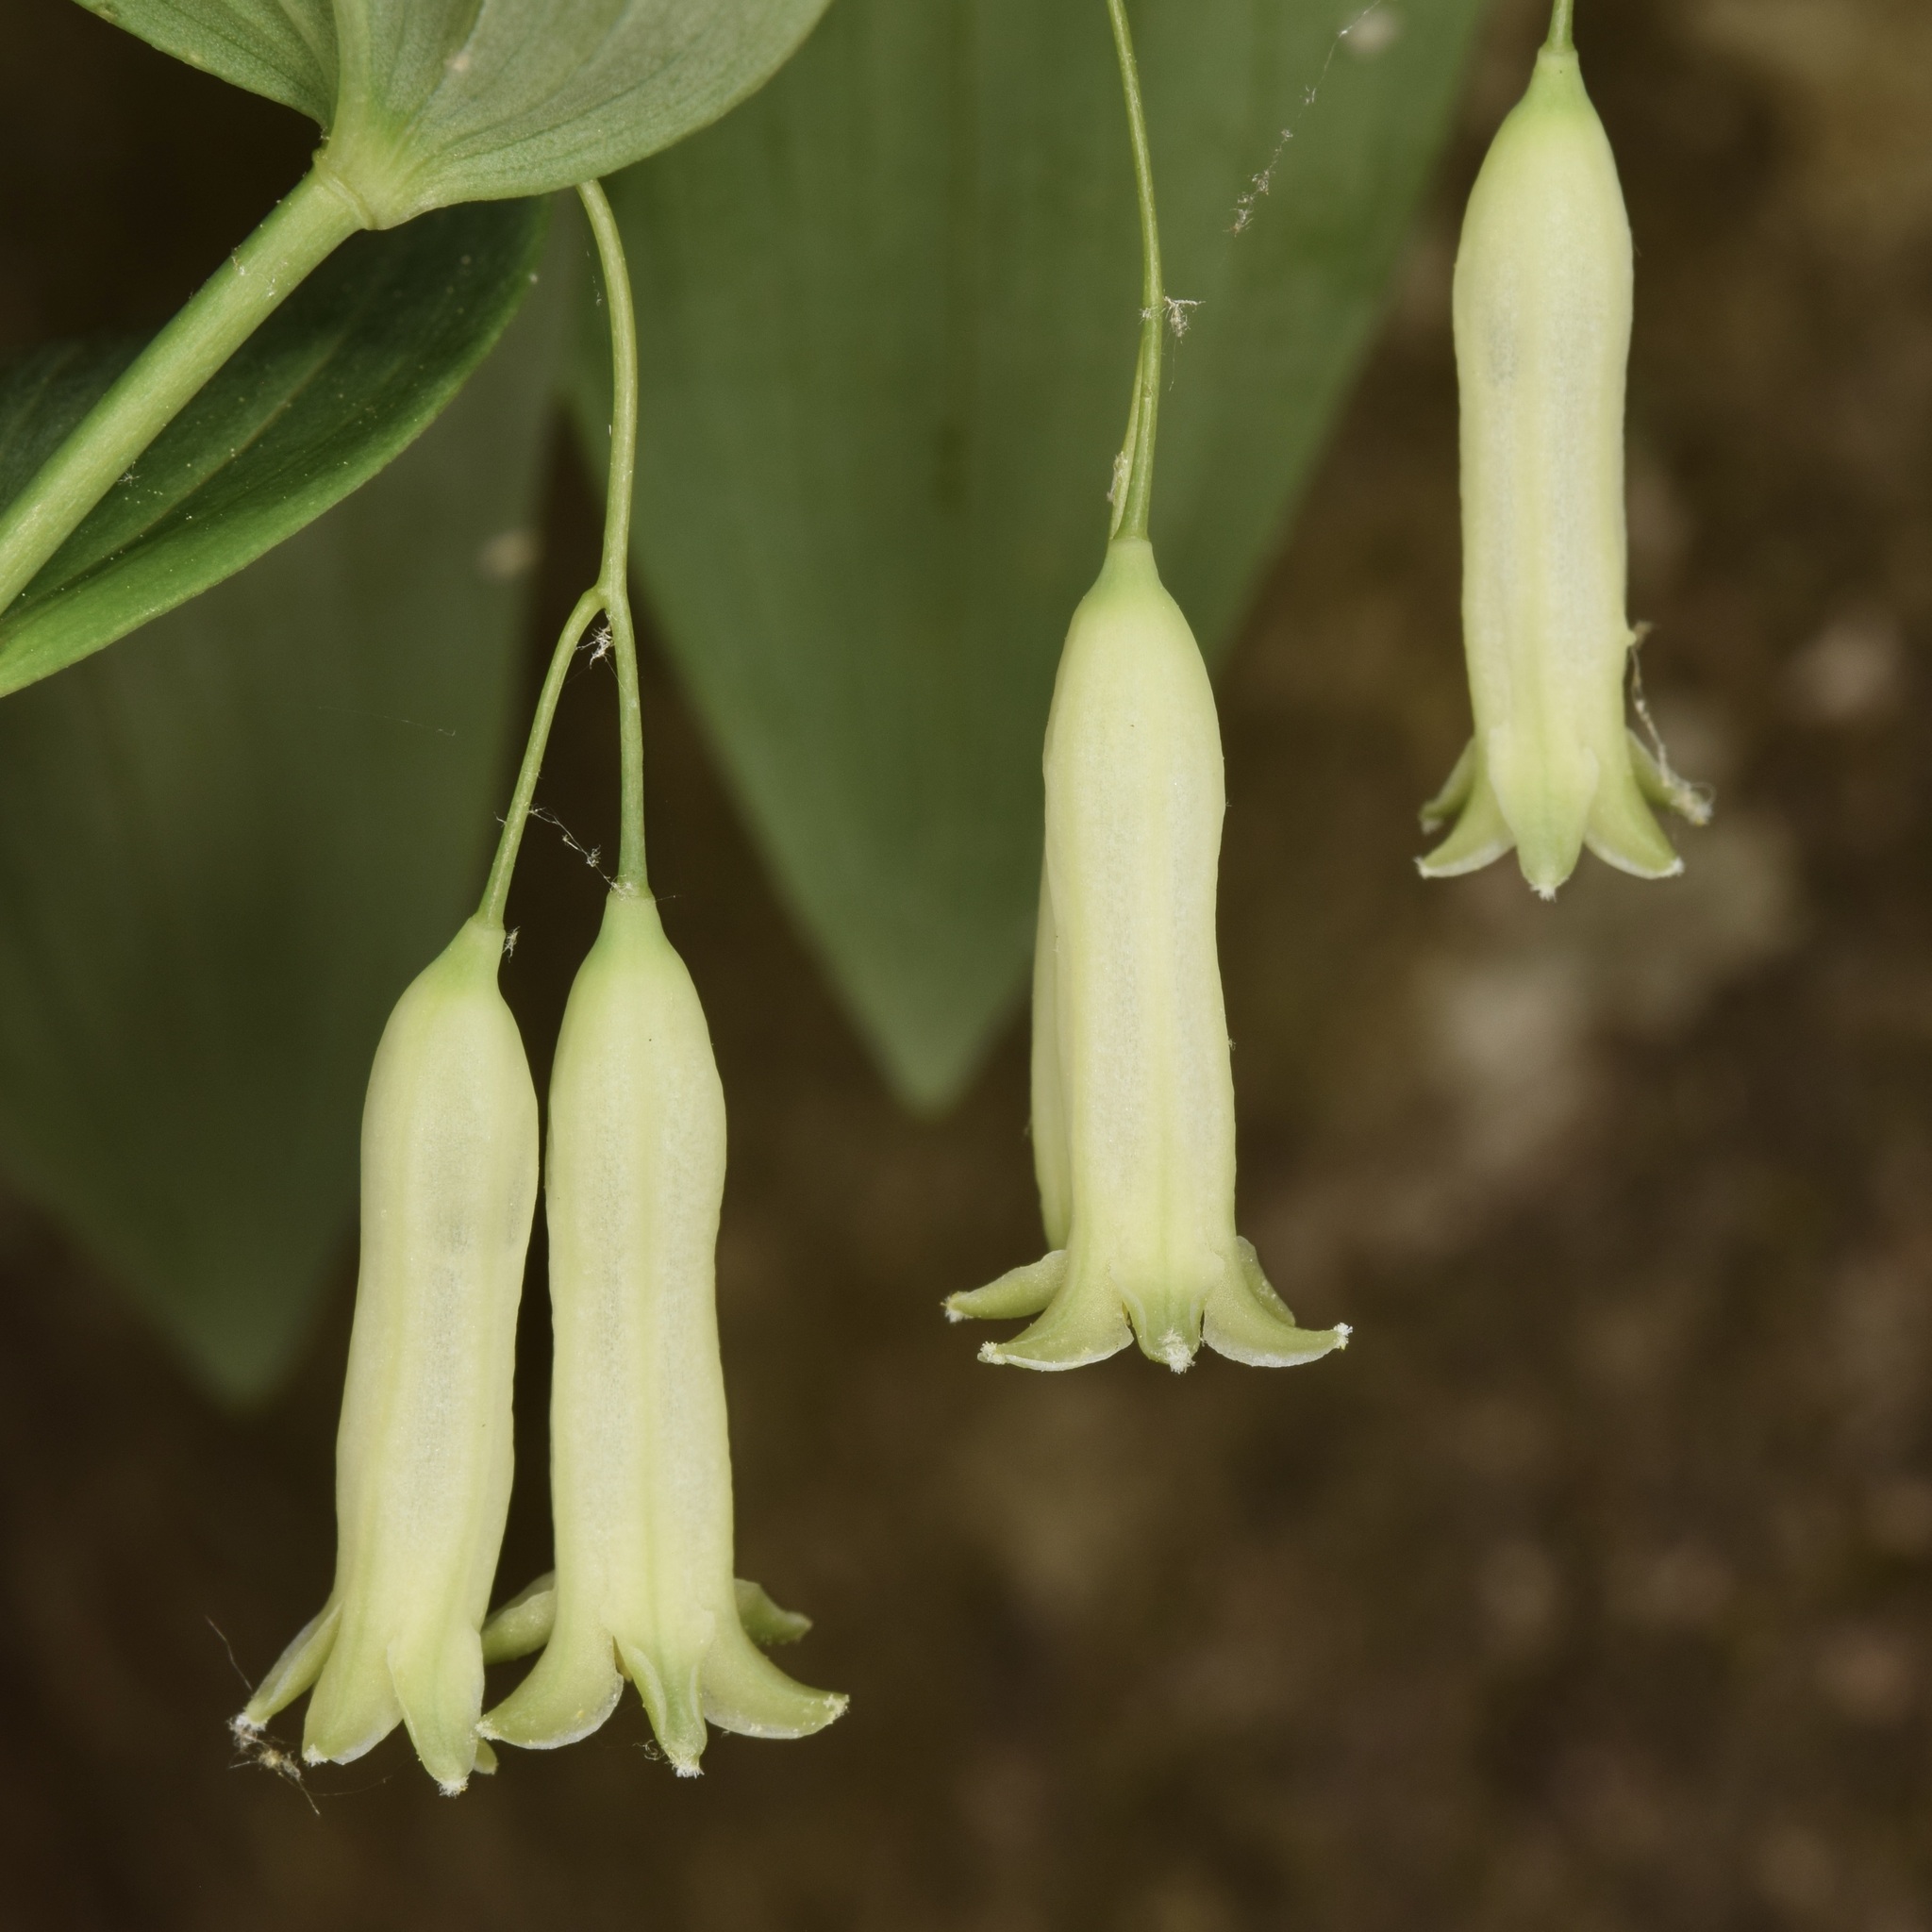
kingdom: Plantae
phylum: Tracheophyta
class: Liliopsida
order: Asparagales
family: Asparagaceae
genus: Polygonatum
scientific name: Polygonatum biflorum
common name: American solomon's-seal
